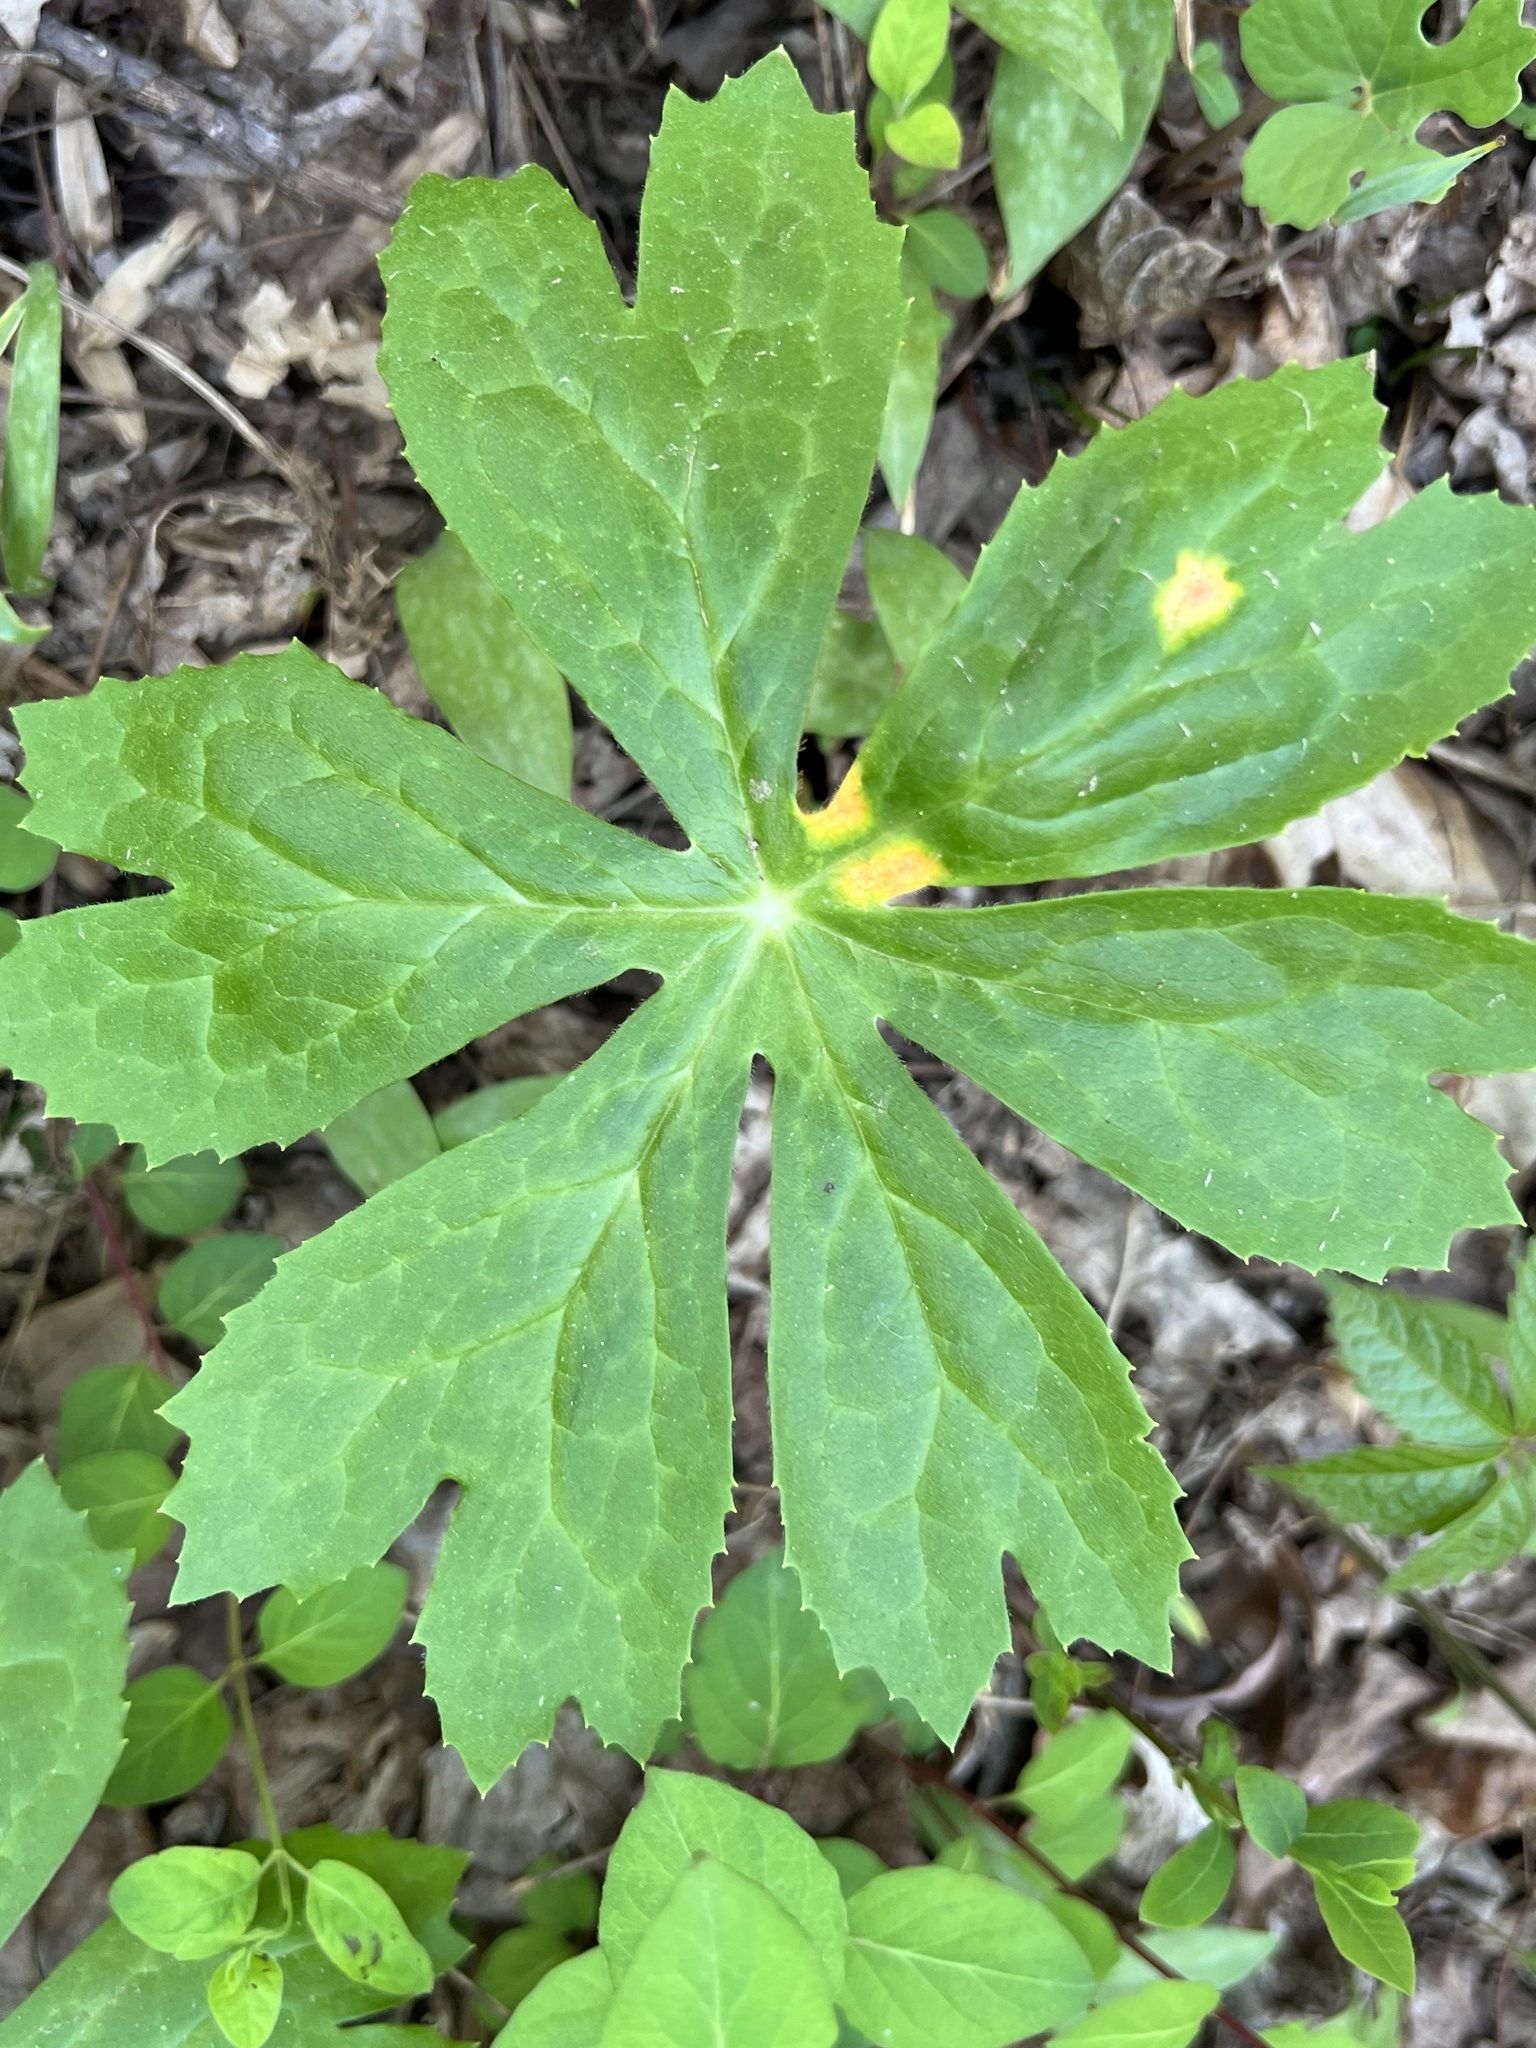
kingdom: Fungi
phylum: Basidiomycota
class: Pucciniomycetes
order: Pucciniales
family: Pucciniaceae
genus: Puccinia
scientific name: Puccinia podophylli
